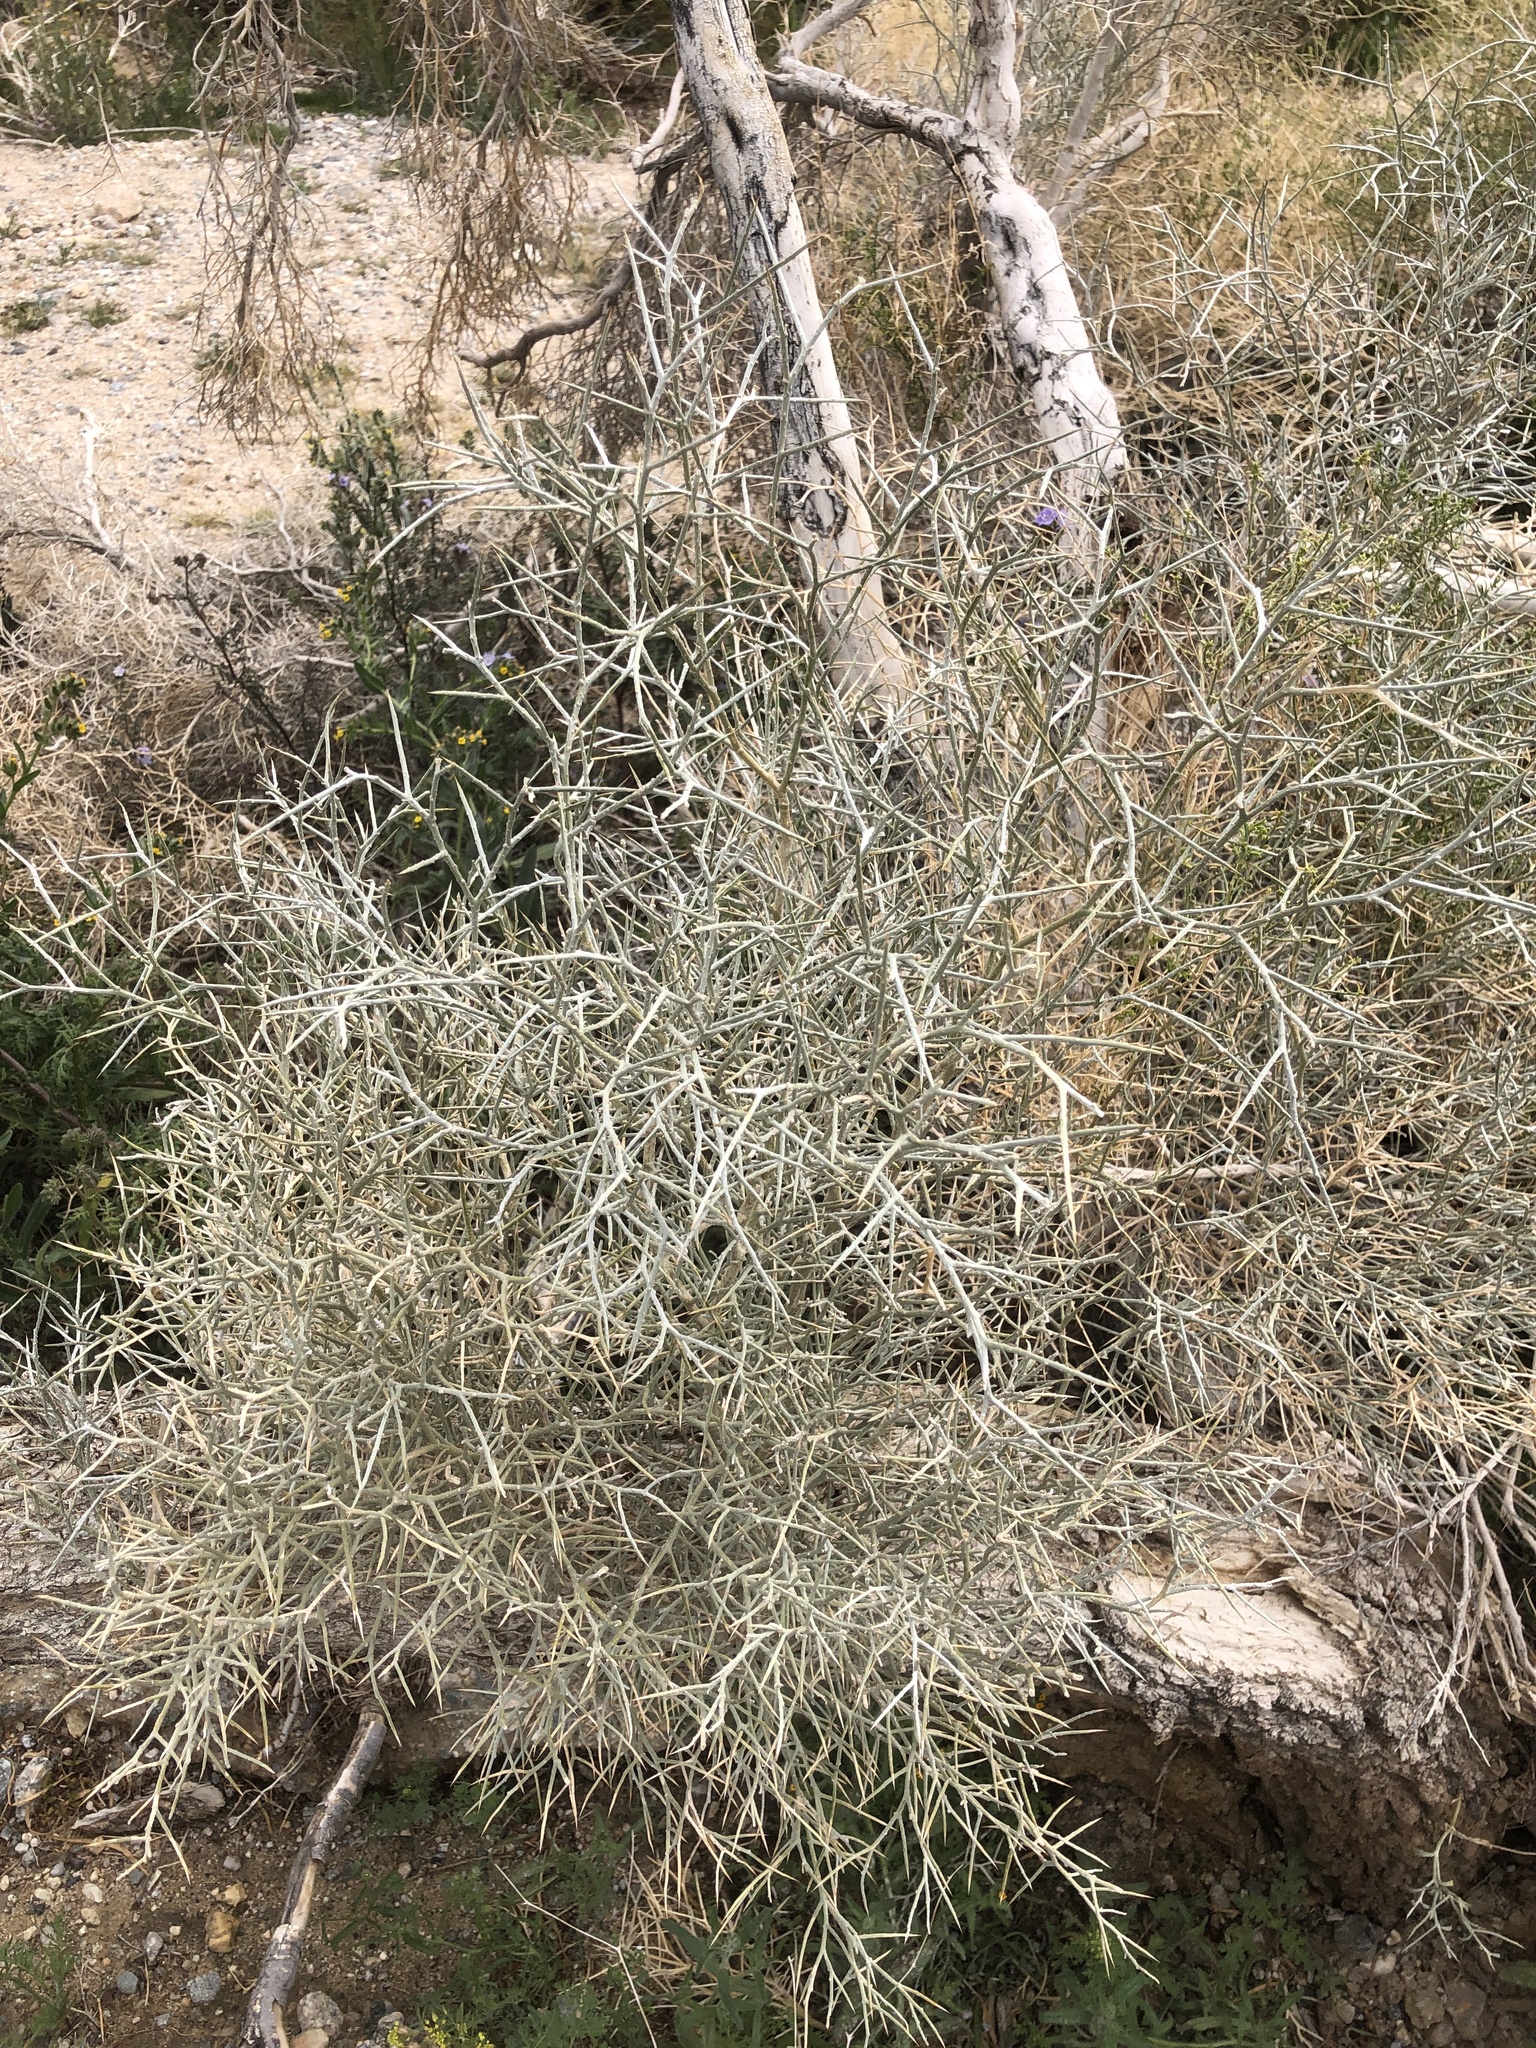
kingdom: Plantae
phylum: Tracheophyta
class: Magnoliopsida
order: Fabales
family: Fabaceae
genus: Psorothamnus
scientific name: Psorothamnus spinosus
